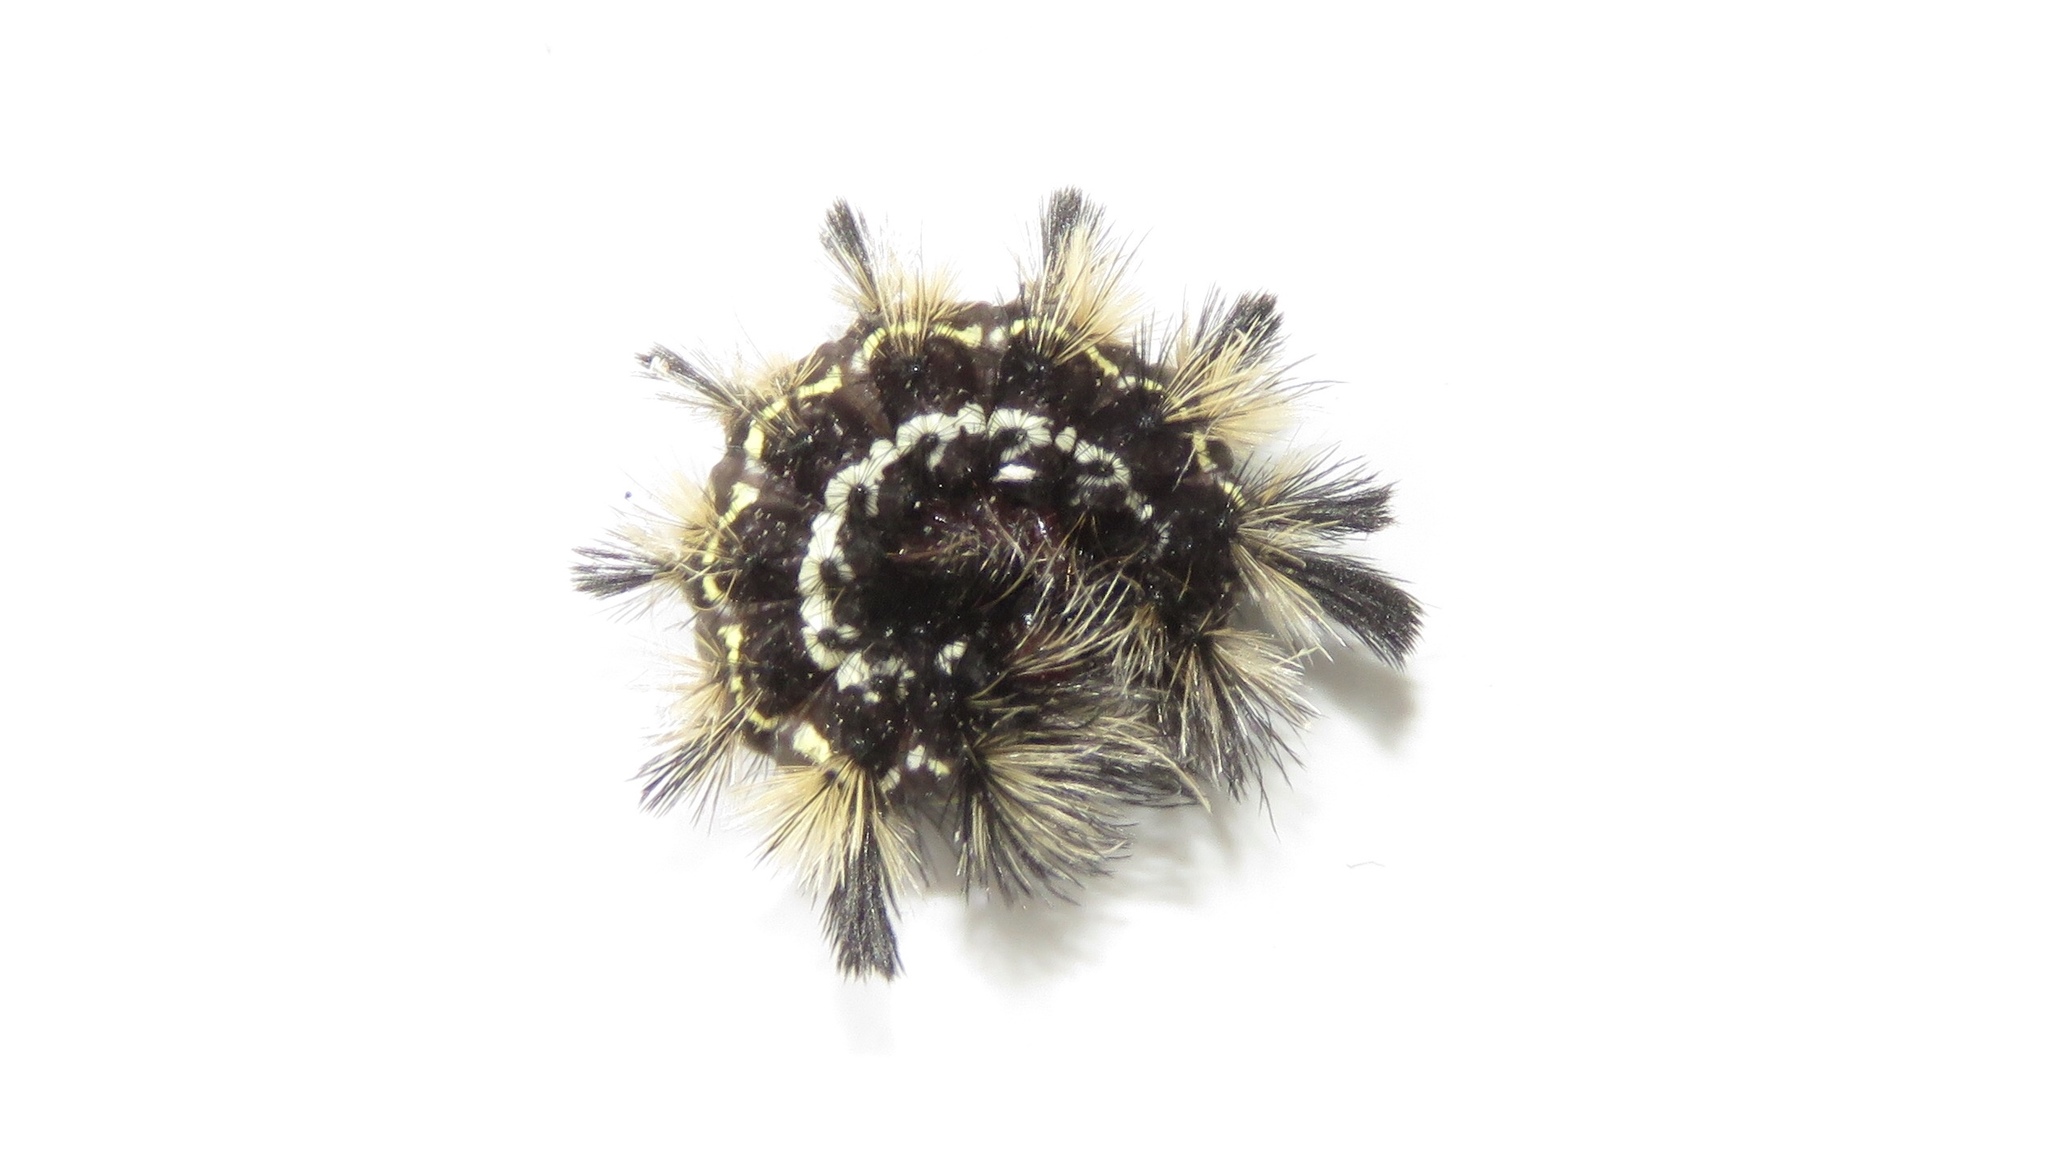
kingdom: Animalia
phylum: Arthropoda
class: Insecta
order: Lepidoptera
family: Erebidae
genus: Ctenucha
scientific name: Ctenucha virginica
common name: Virginia ctenucha moth
